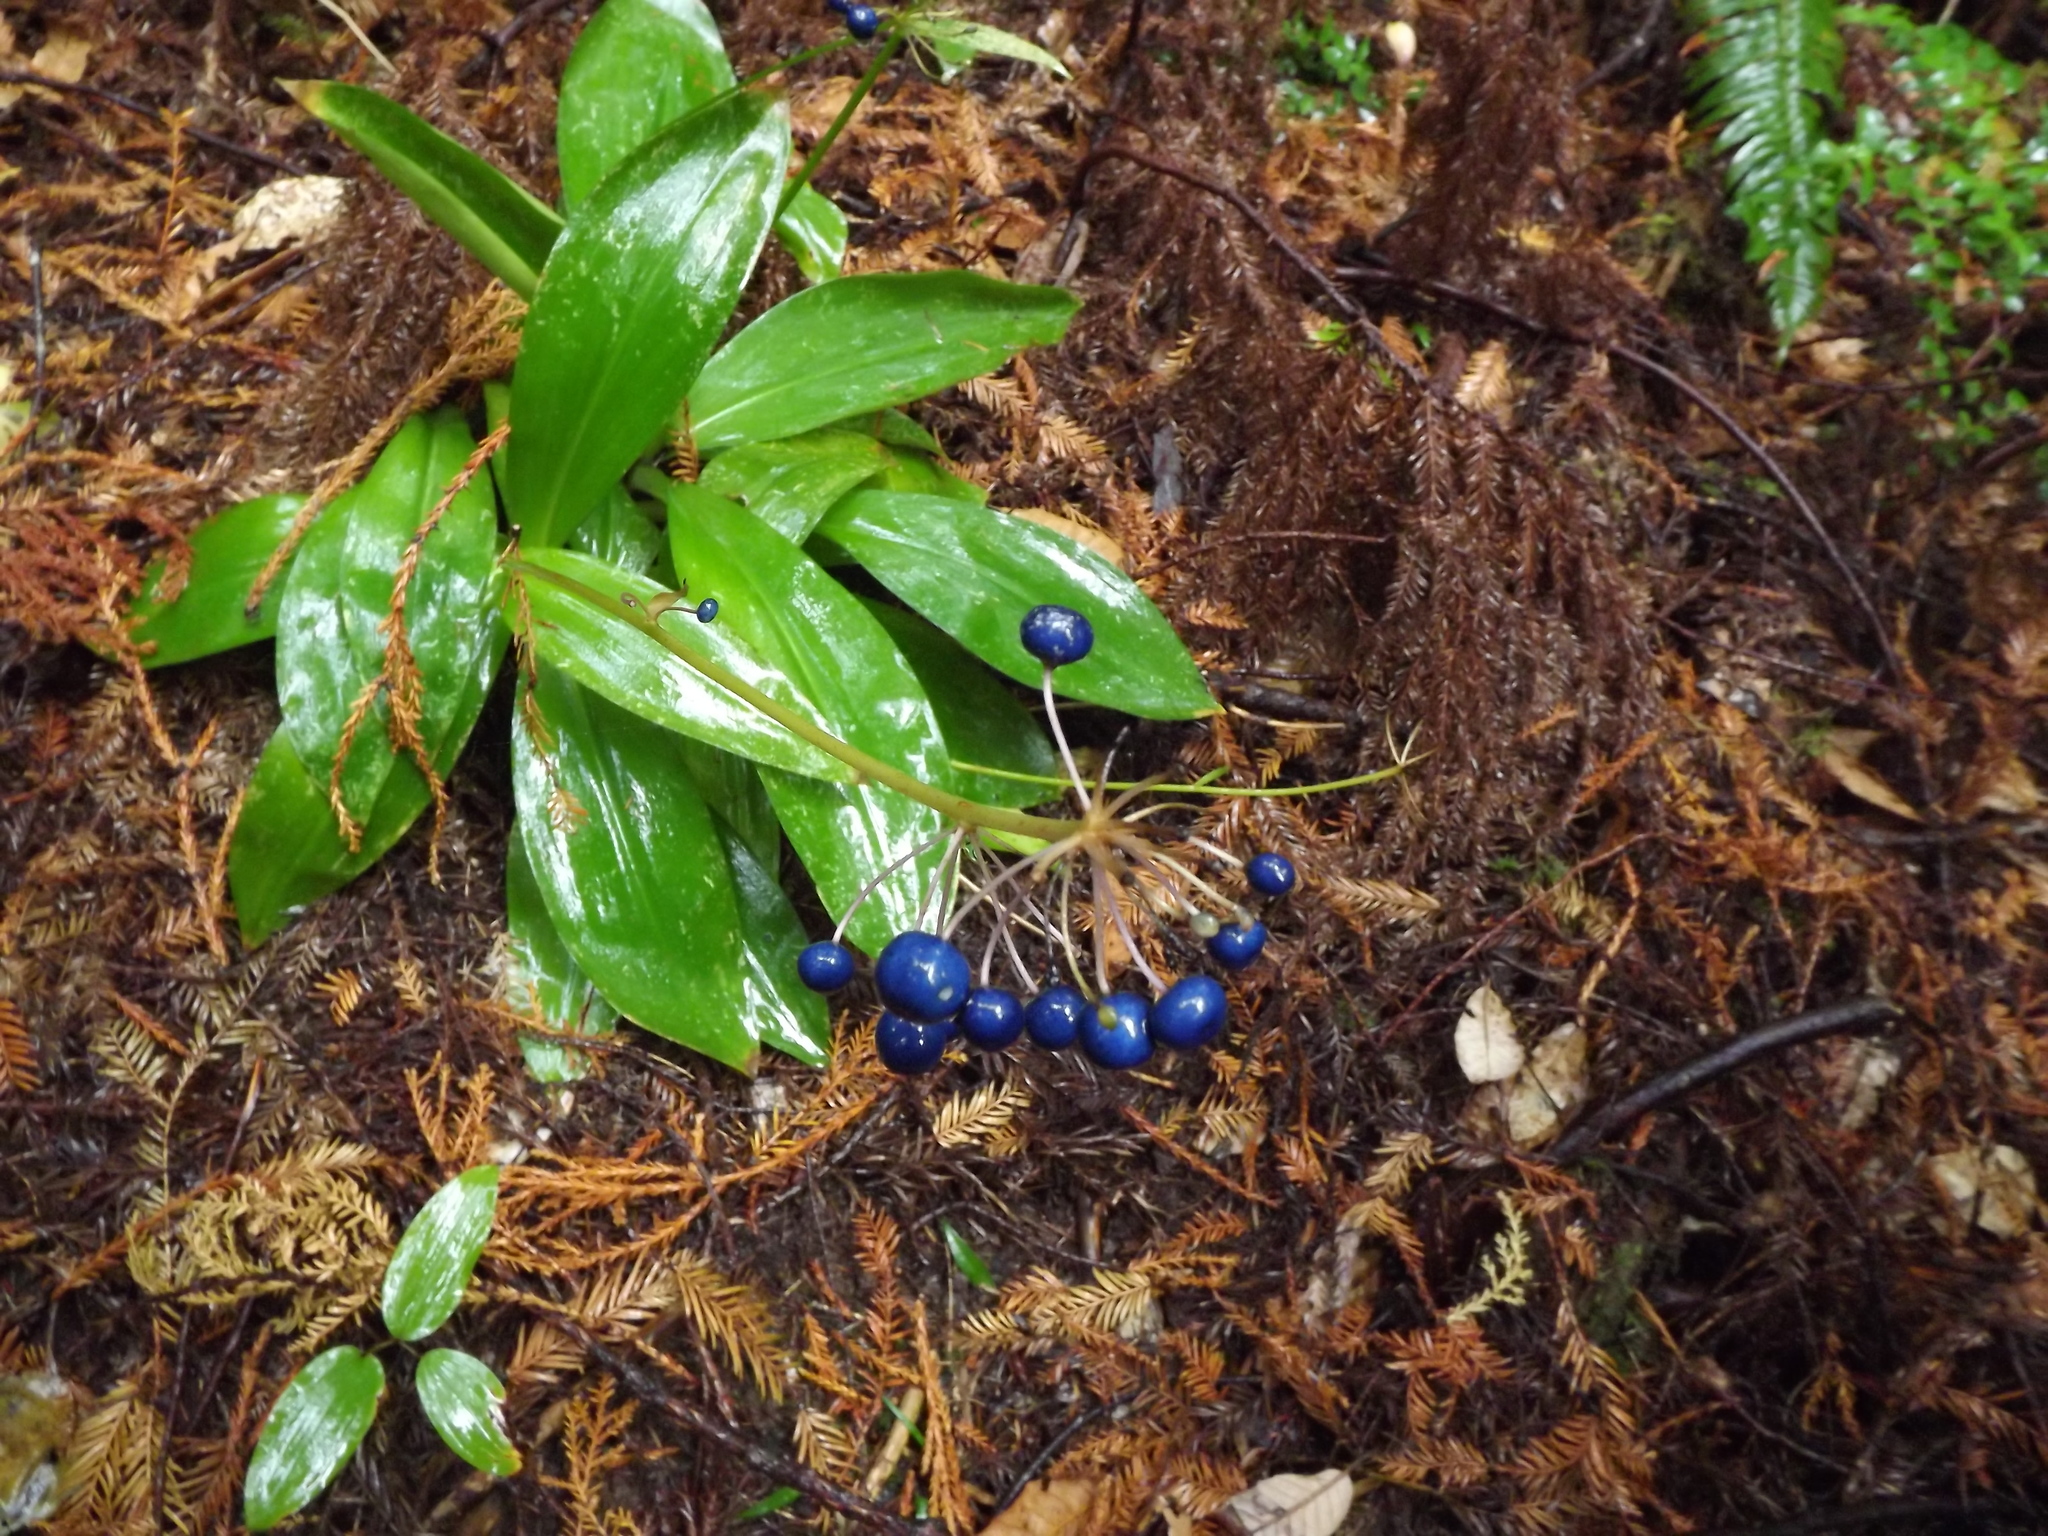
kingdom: Plantae
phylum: Tracheophyta
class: Liliopsida
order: Liliales
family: Liliaceae
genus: Clintonia
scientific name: Clintonia andrewsiana
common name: Red clintonia
